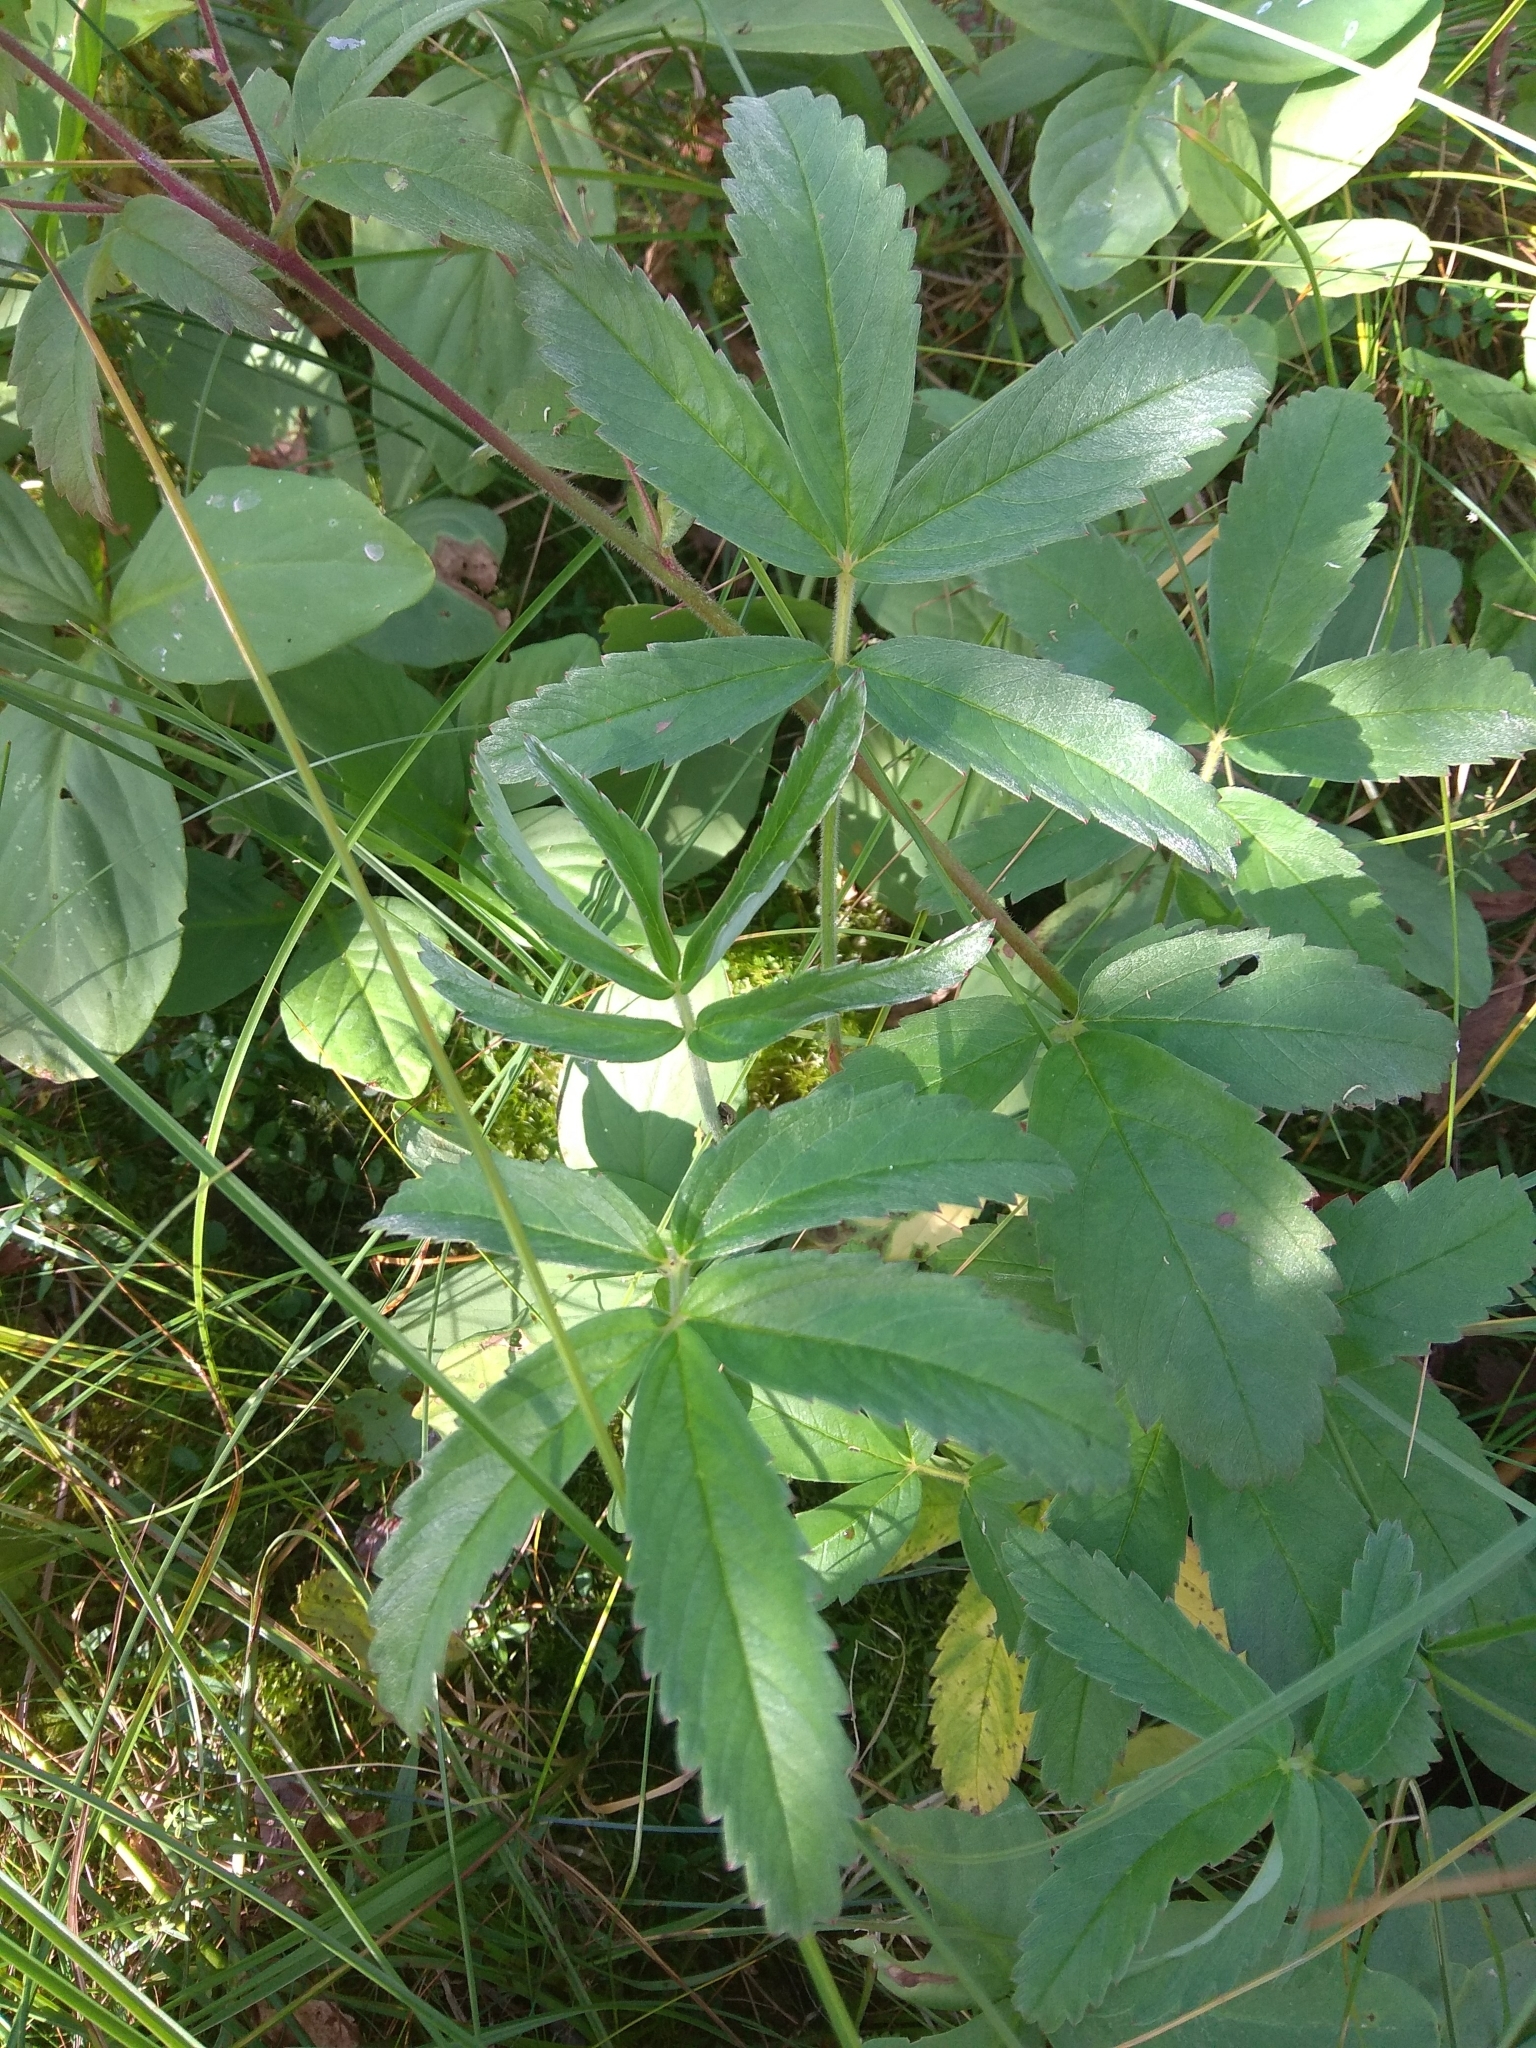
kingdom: Plantae
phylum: Tracheophyta
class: Magnoliopsida
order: Rosales
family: Rosaceae
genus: Comarum
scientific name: Comarum palustre
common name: Marsh cinquefoil
